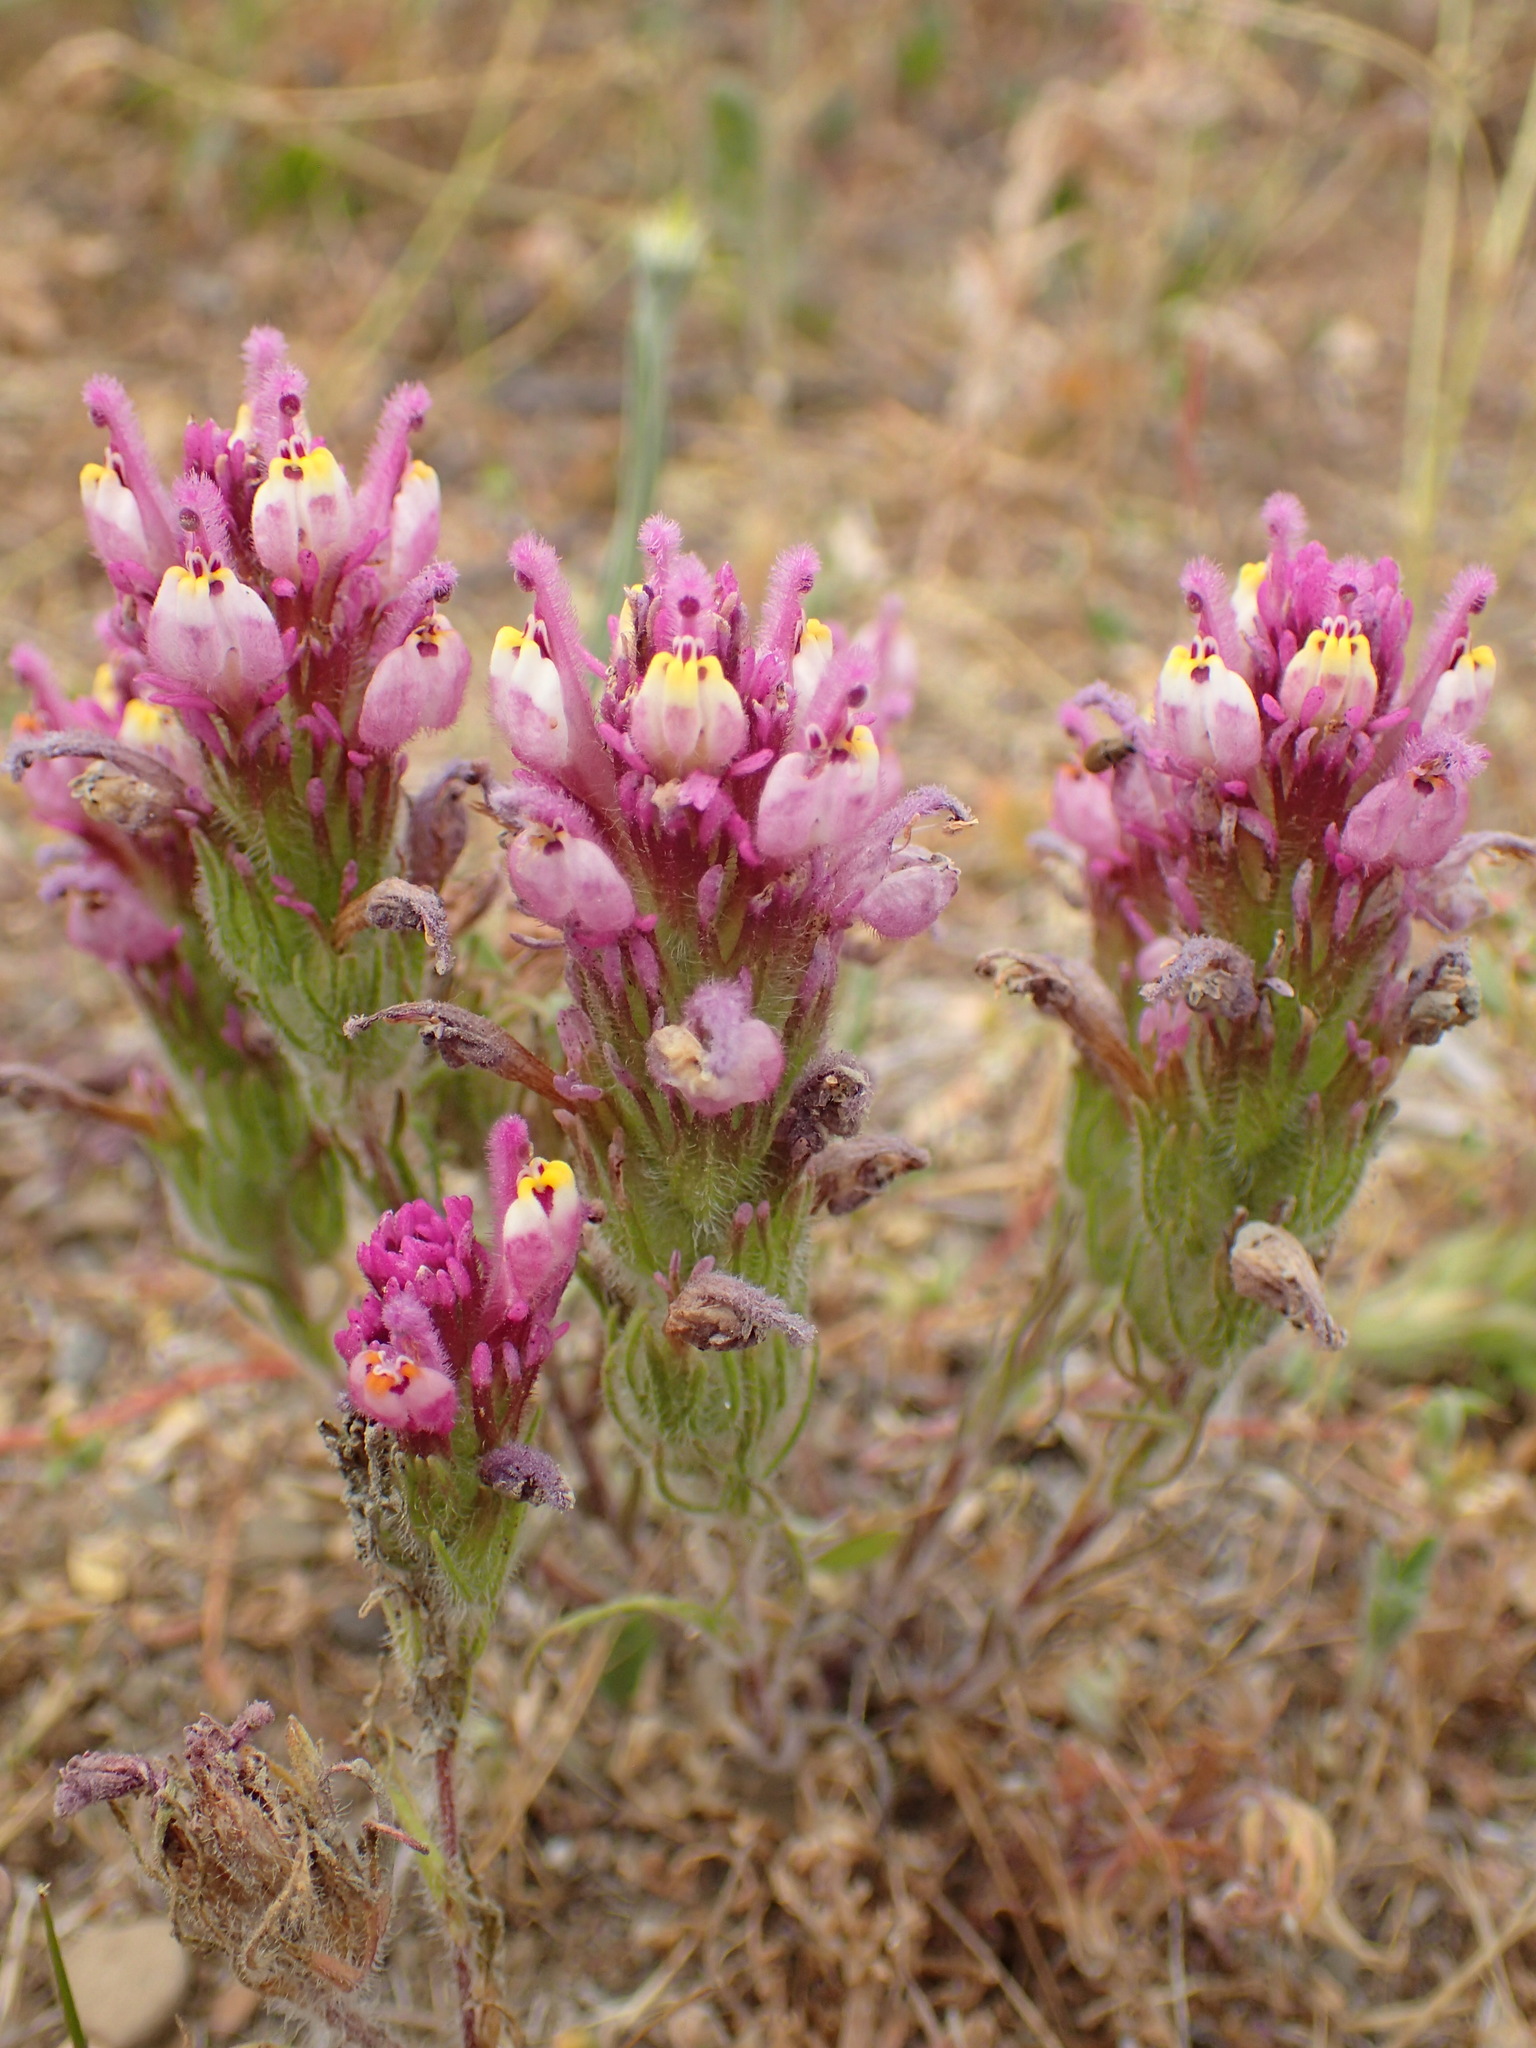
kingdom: Plantae
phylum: Tracheophyta
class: Magnoliopsida
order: Lamiales
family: Orobanchaceae
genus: Castilleja
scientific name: Castilleja exserta
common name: Purple owl-clover
